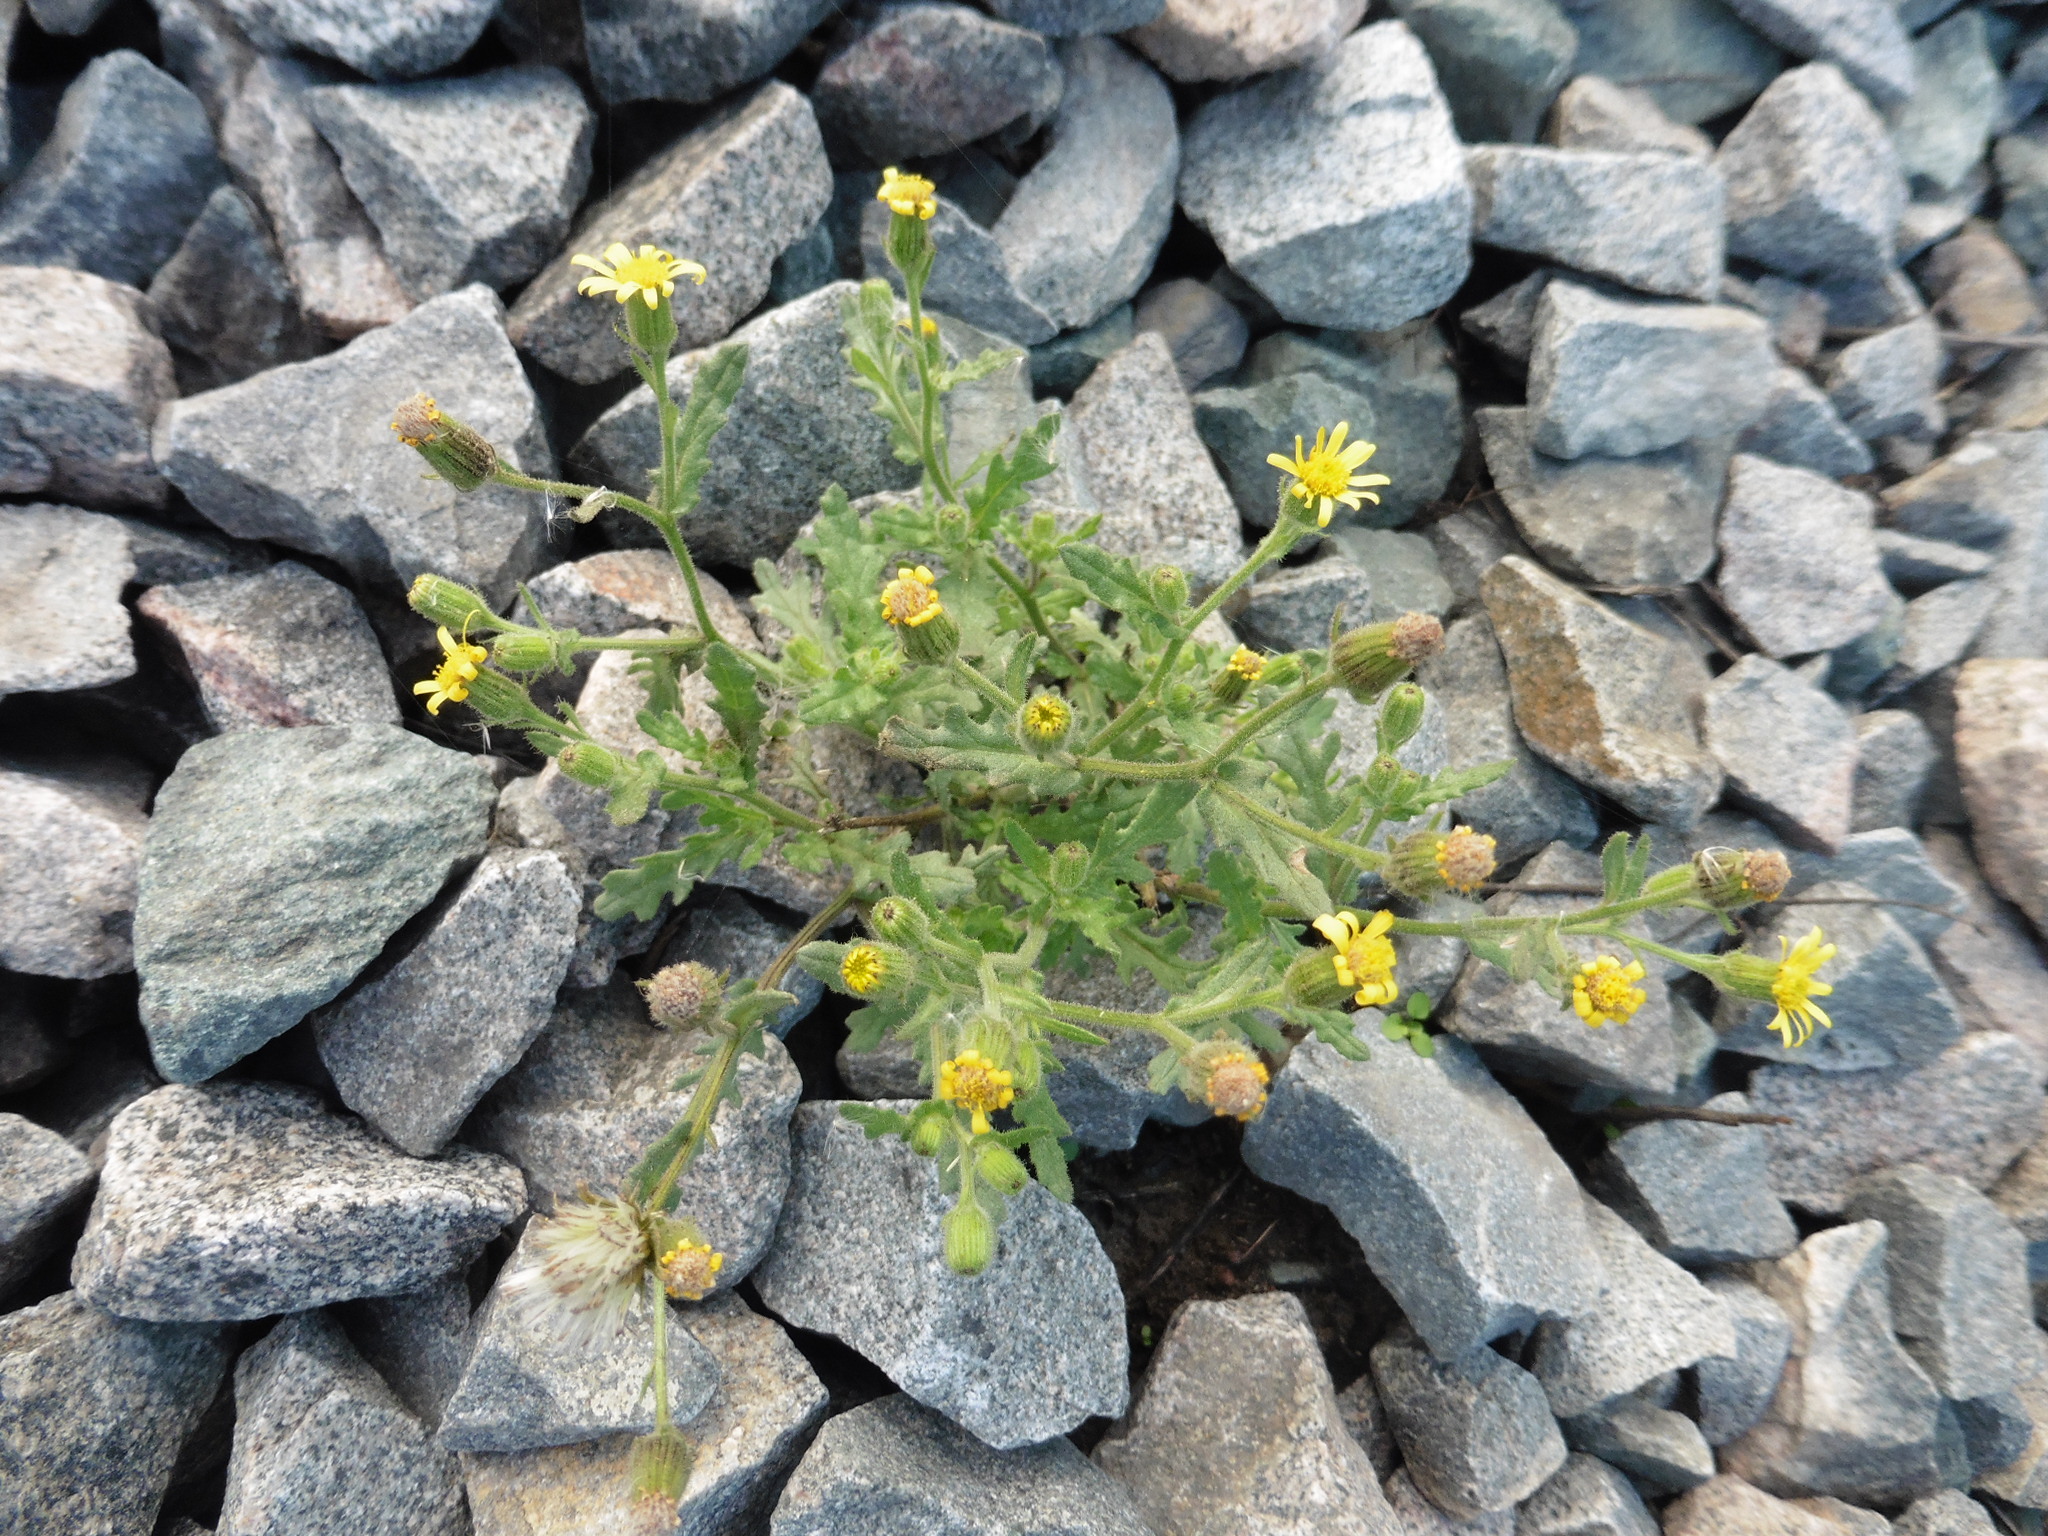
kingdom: Plantae
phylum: Tracheophyta
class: Magnoliopsida
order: Asterales
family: Asteraceae
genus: Senecio
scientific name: Senecio viscosus
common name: Sticky groundsel
